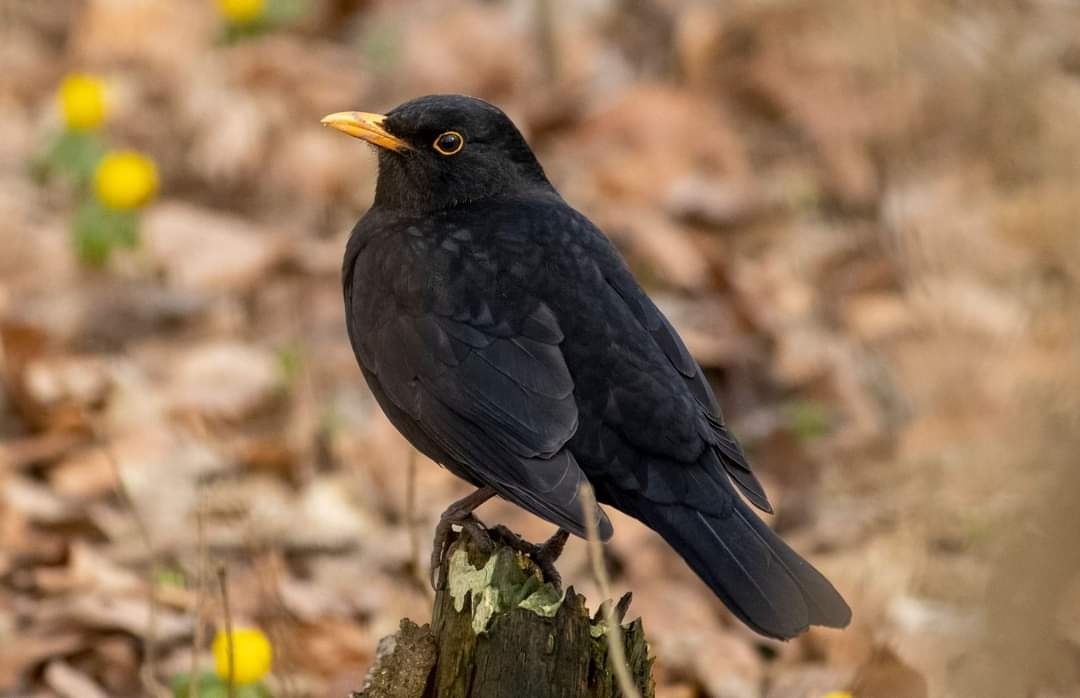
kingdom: Animalia
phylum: Chordata
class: Aves
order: Passeriformes
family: Turdidae
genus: Turdus
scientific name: Turdus merula
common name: Common blackbird
